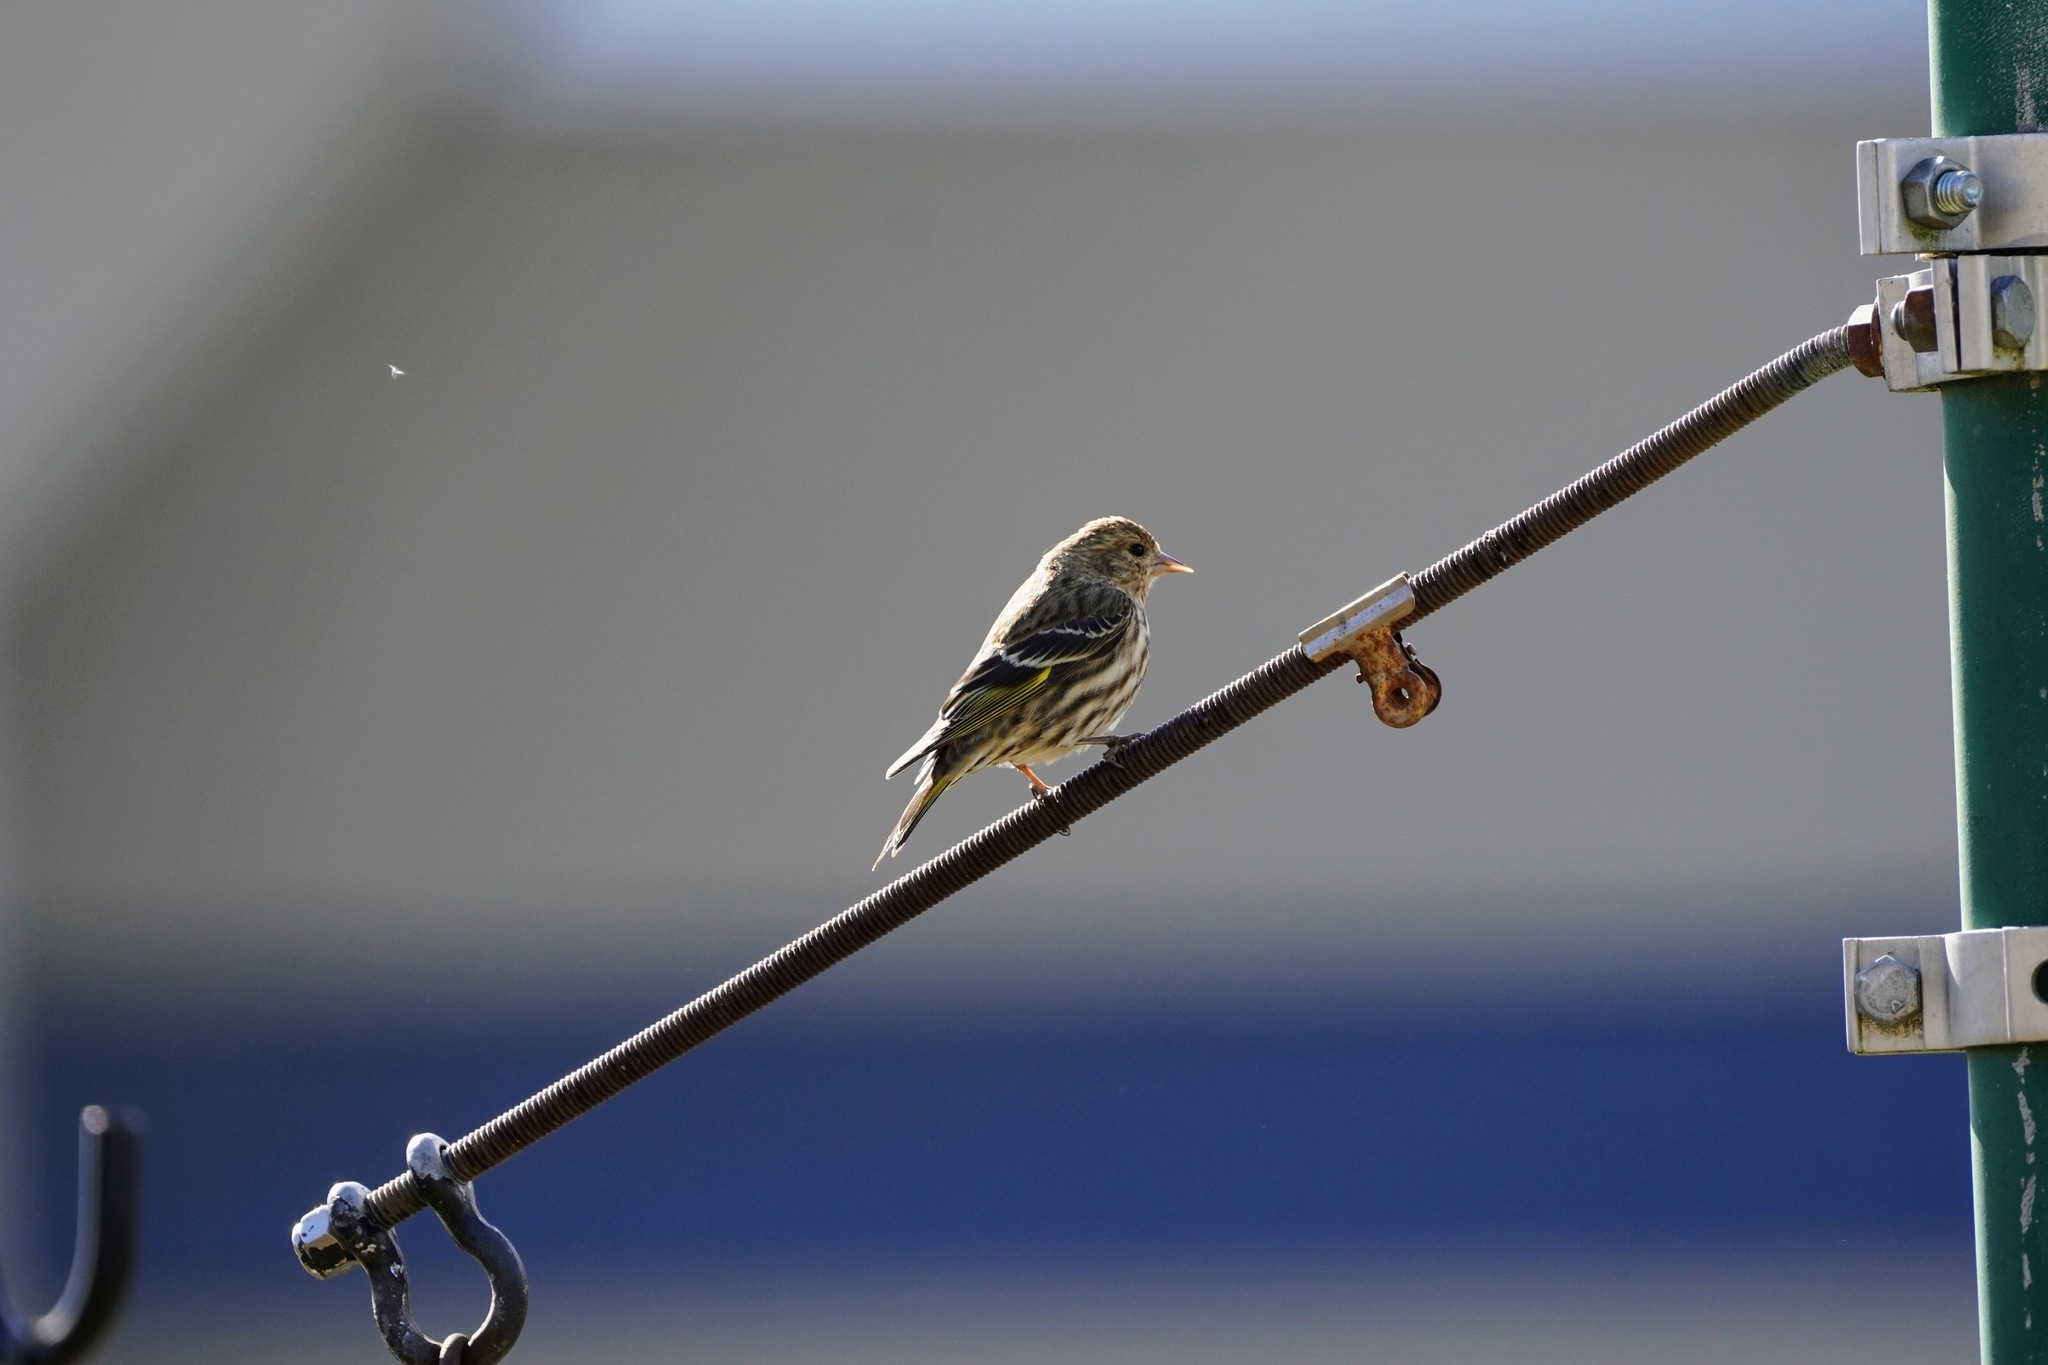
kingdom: Animalia
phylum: Chordata
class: Aves
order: Passeriformes
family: Fringillidae
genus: Spinus
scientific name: Spinus pinus
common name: Pine siskin
